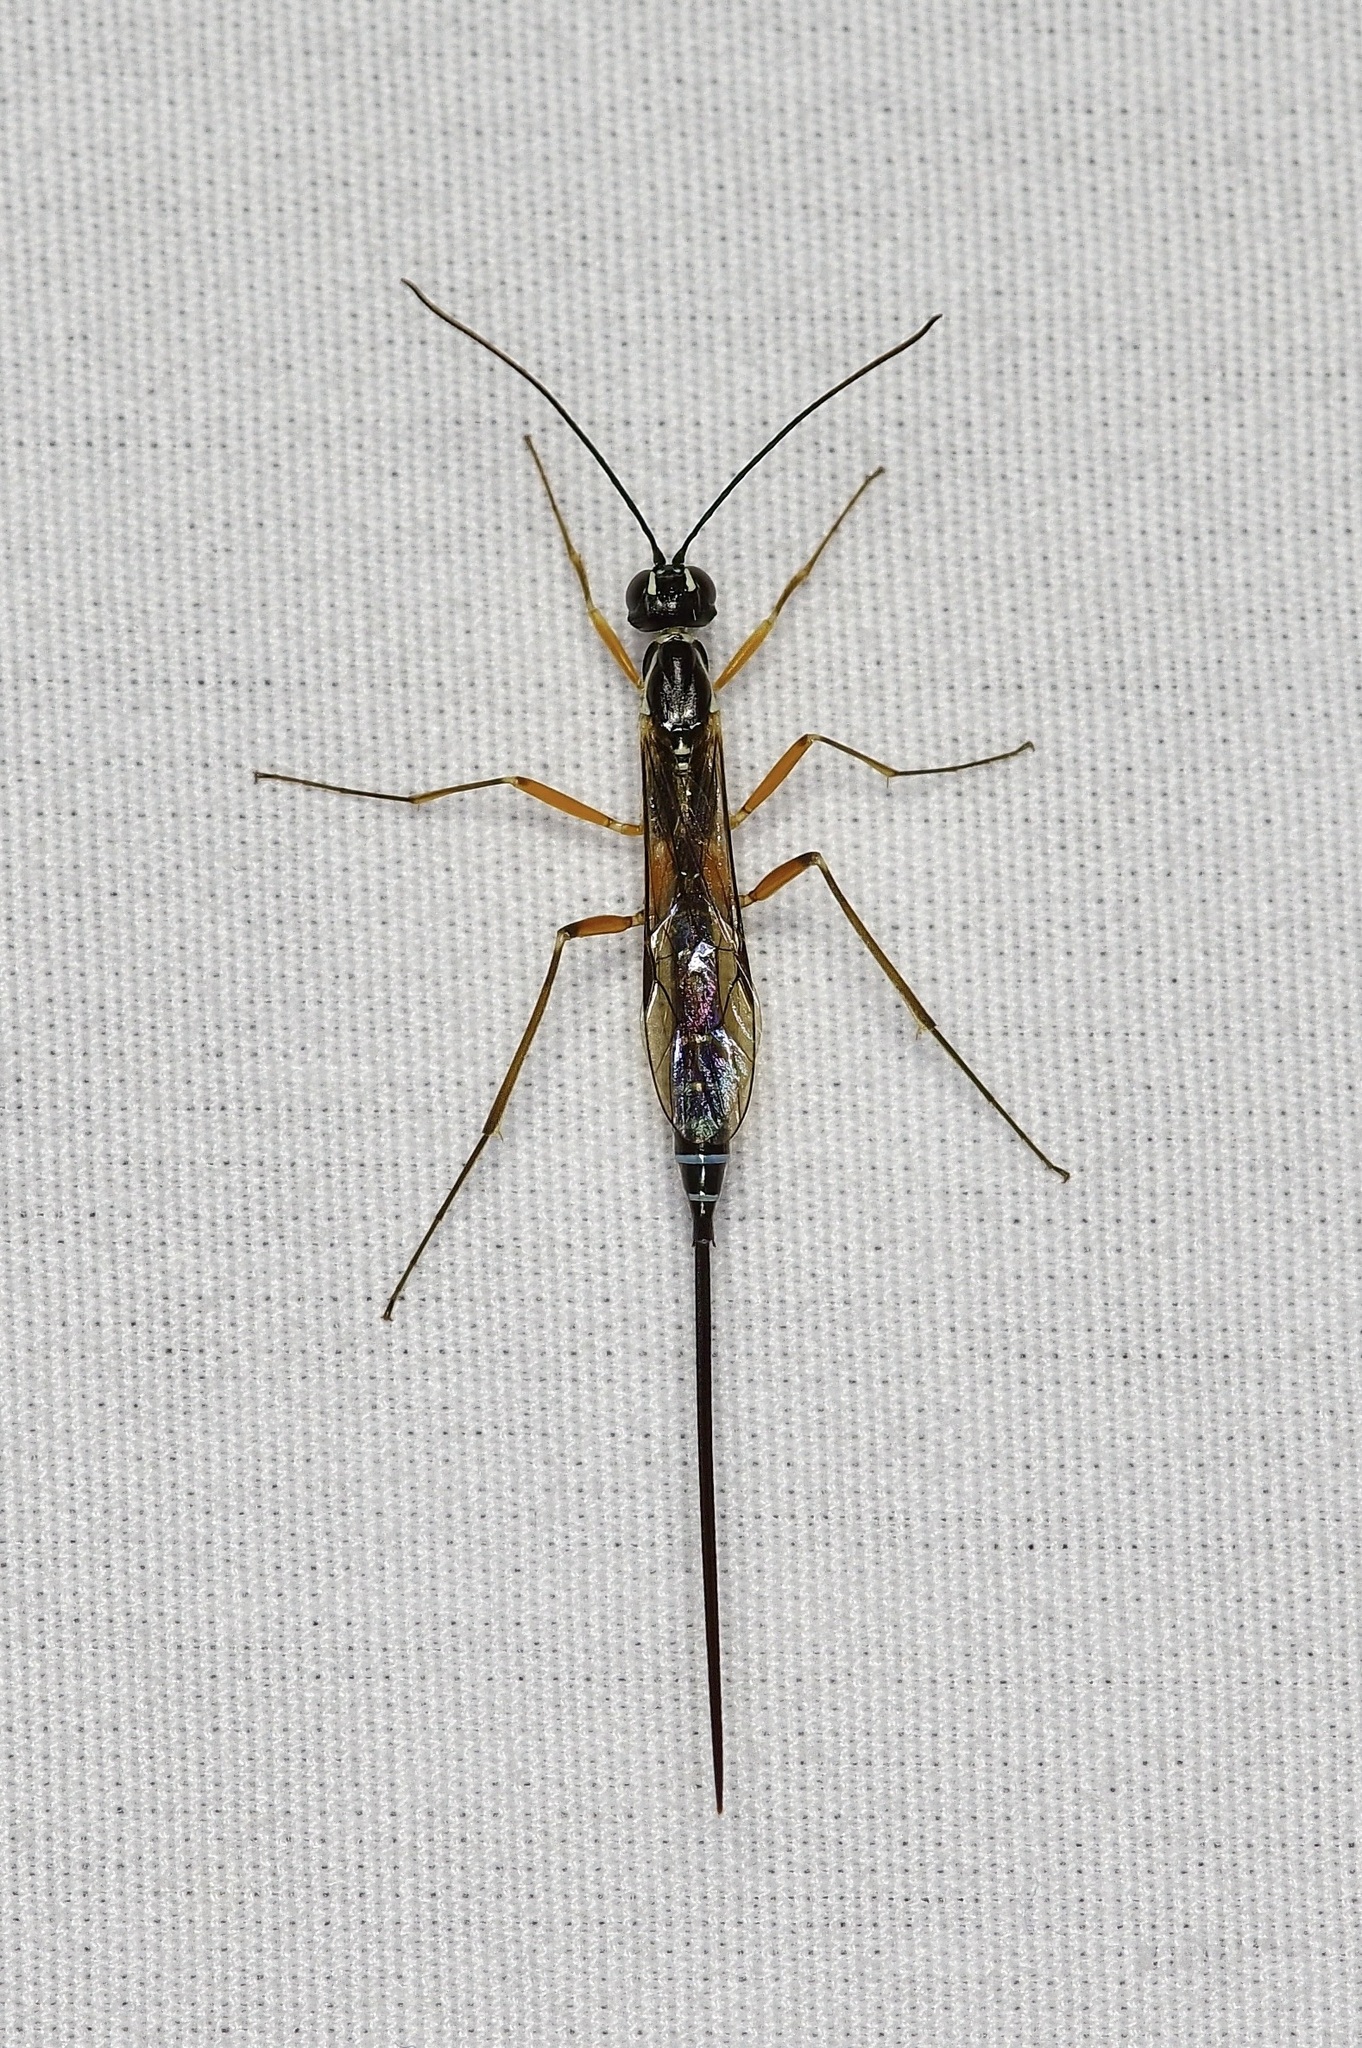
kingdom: Animalia
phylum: Arthropoda
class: Insecta
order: Hymenoptera
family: Ichneumonidae
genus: Podoschistus
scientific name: Podoschistus vittifrons
